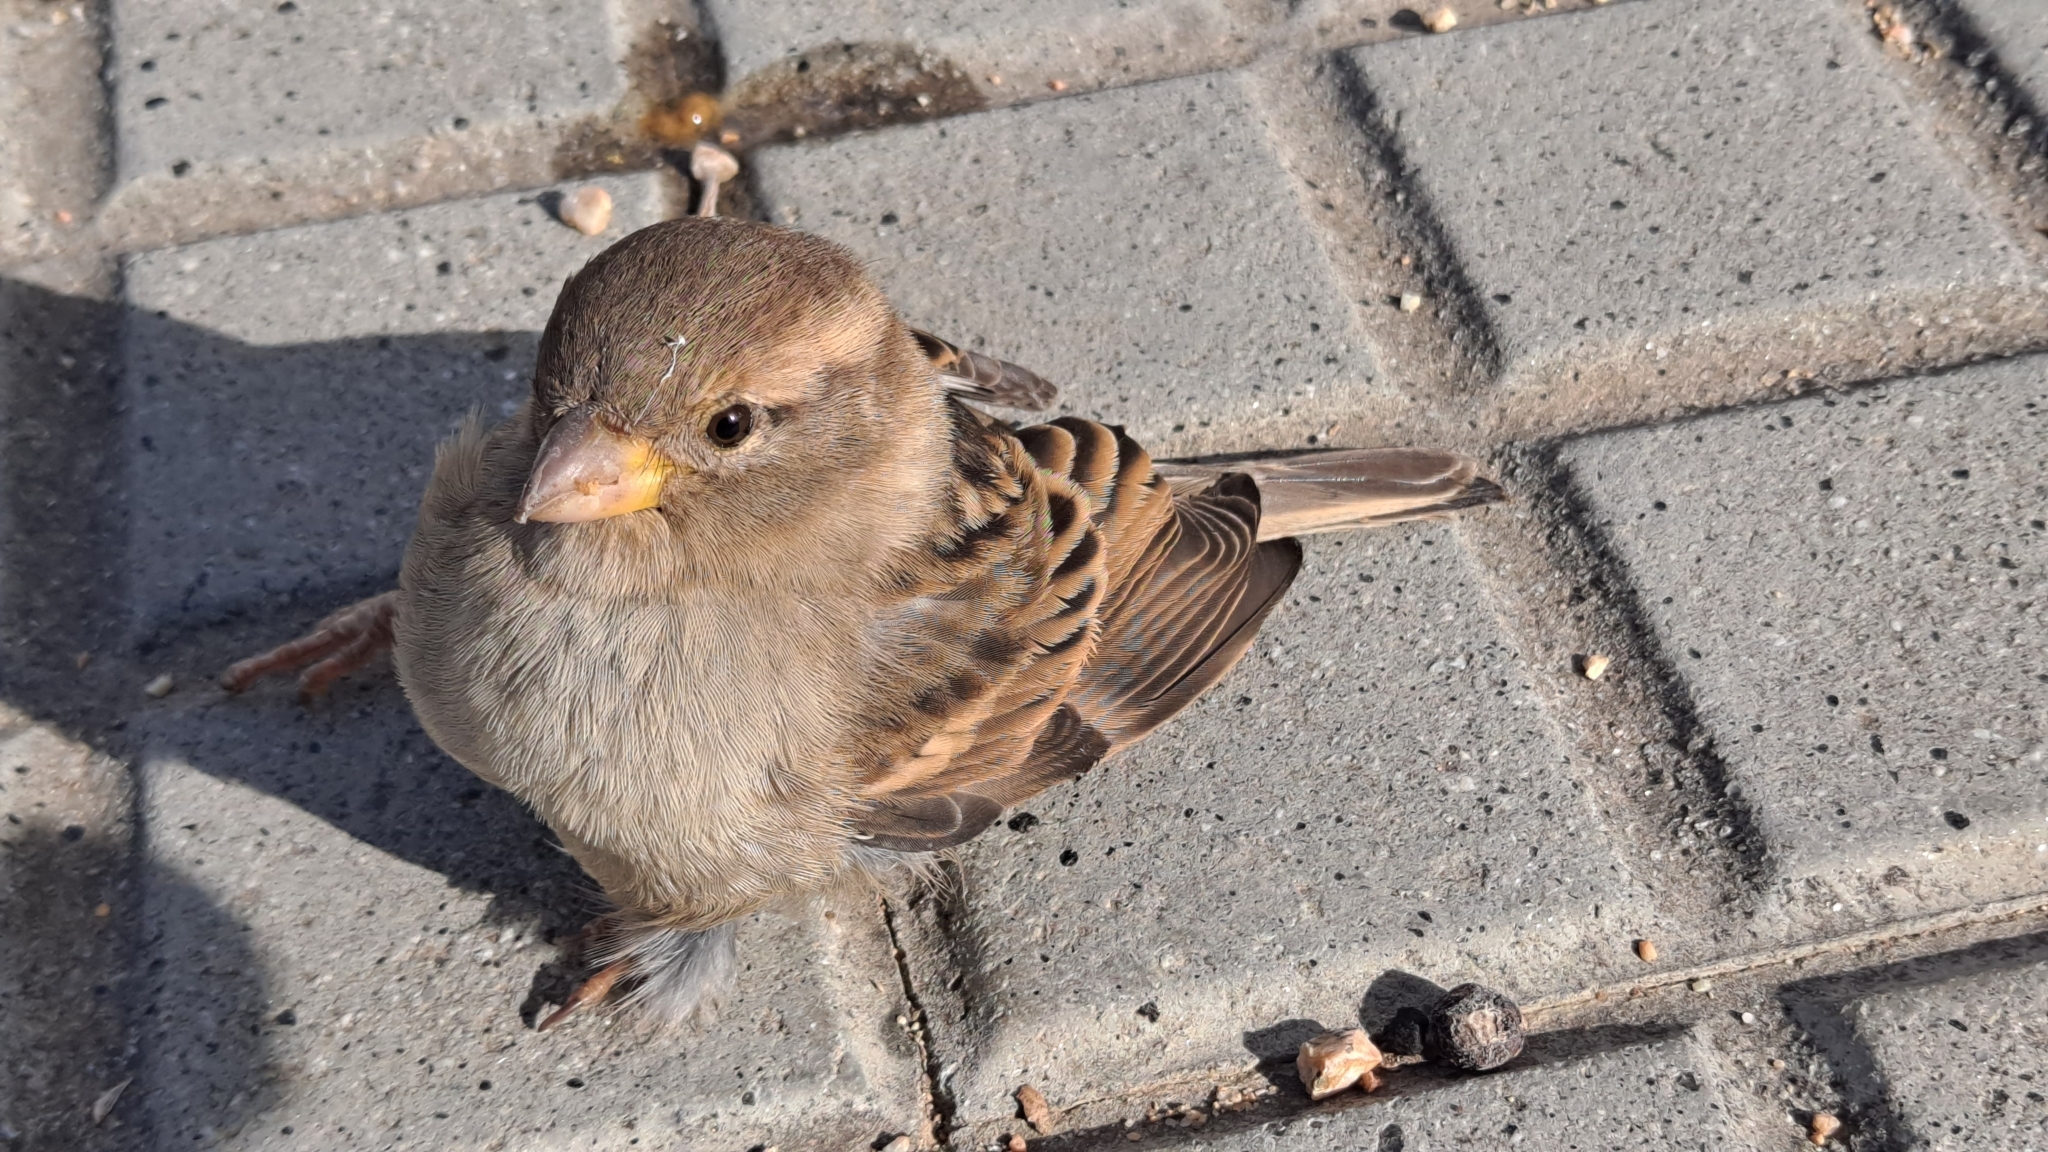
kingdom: Animalia
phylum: Chordata
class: Aves
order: Passeriformes
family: Passeridae
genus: Passer
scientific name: Passer domesticus
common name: House sparrow
